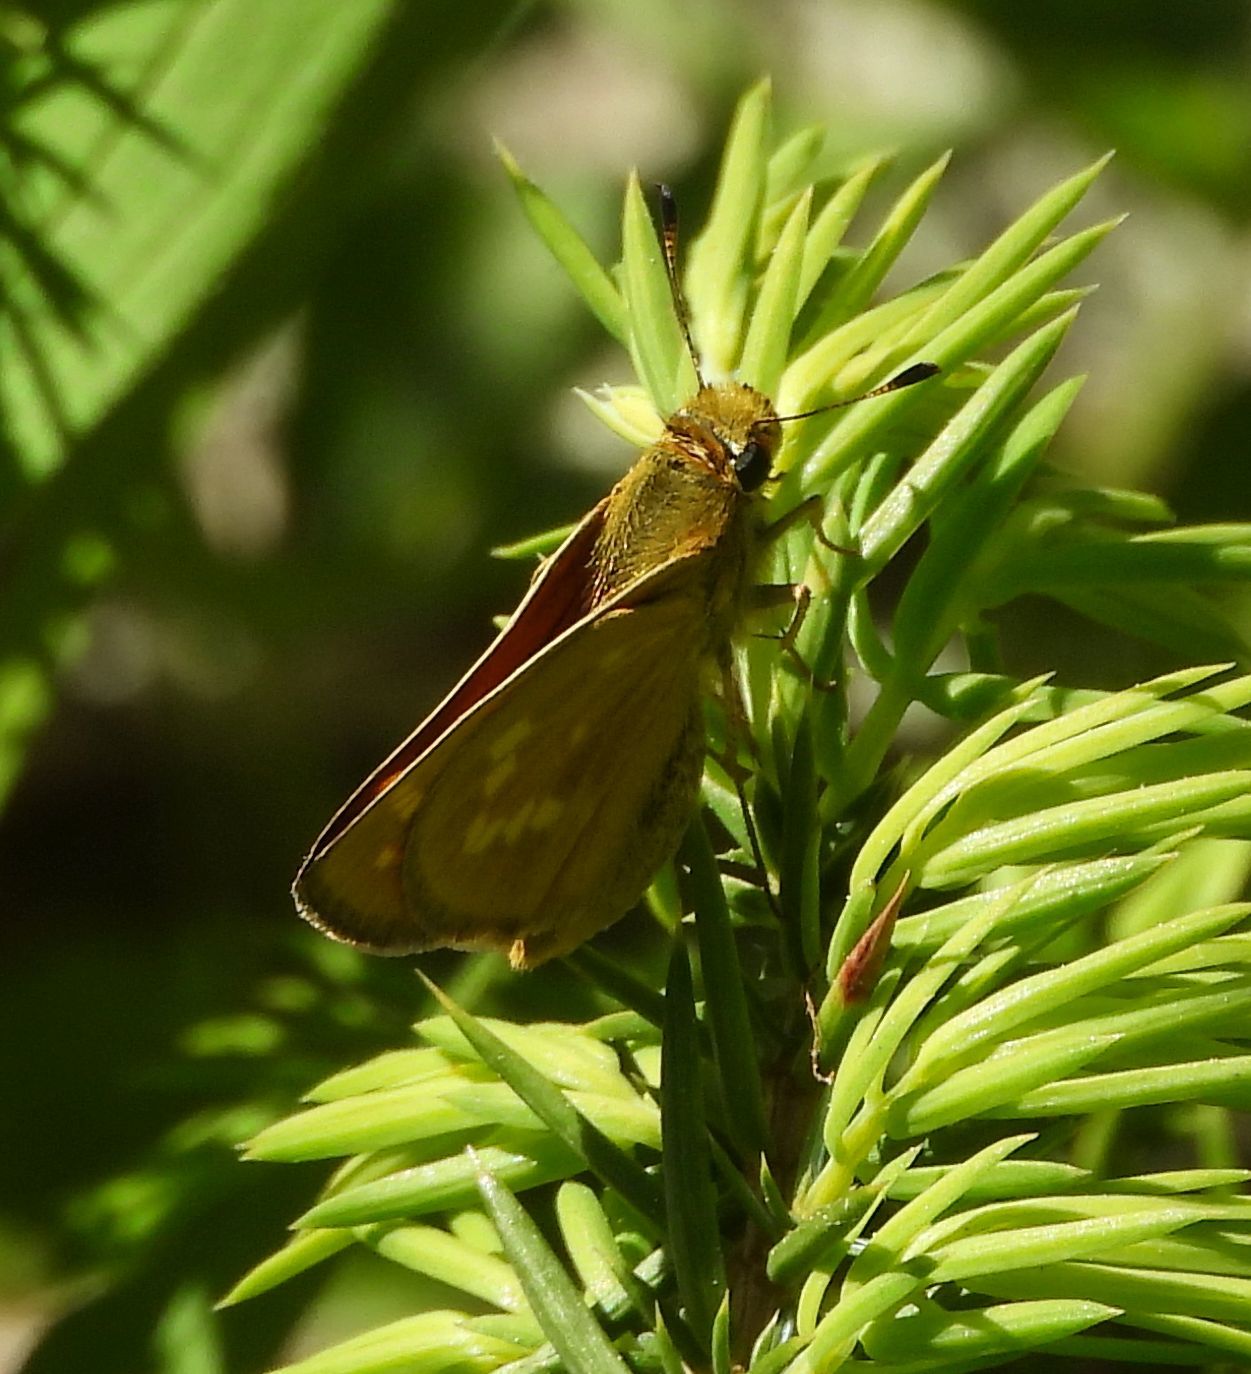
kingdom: Animalia
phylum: Arthropoda
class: Insecta
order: Lepidoptera
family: Hesperiidae
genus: Hesperia
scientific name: Hesperia sassacus
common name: Indian skipper
